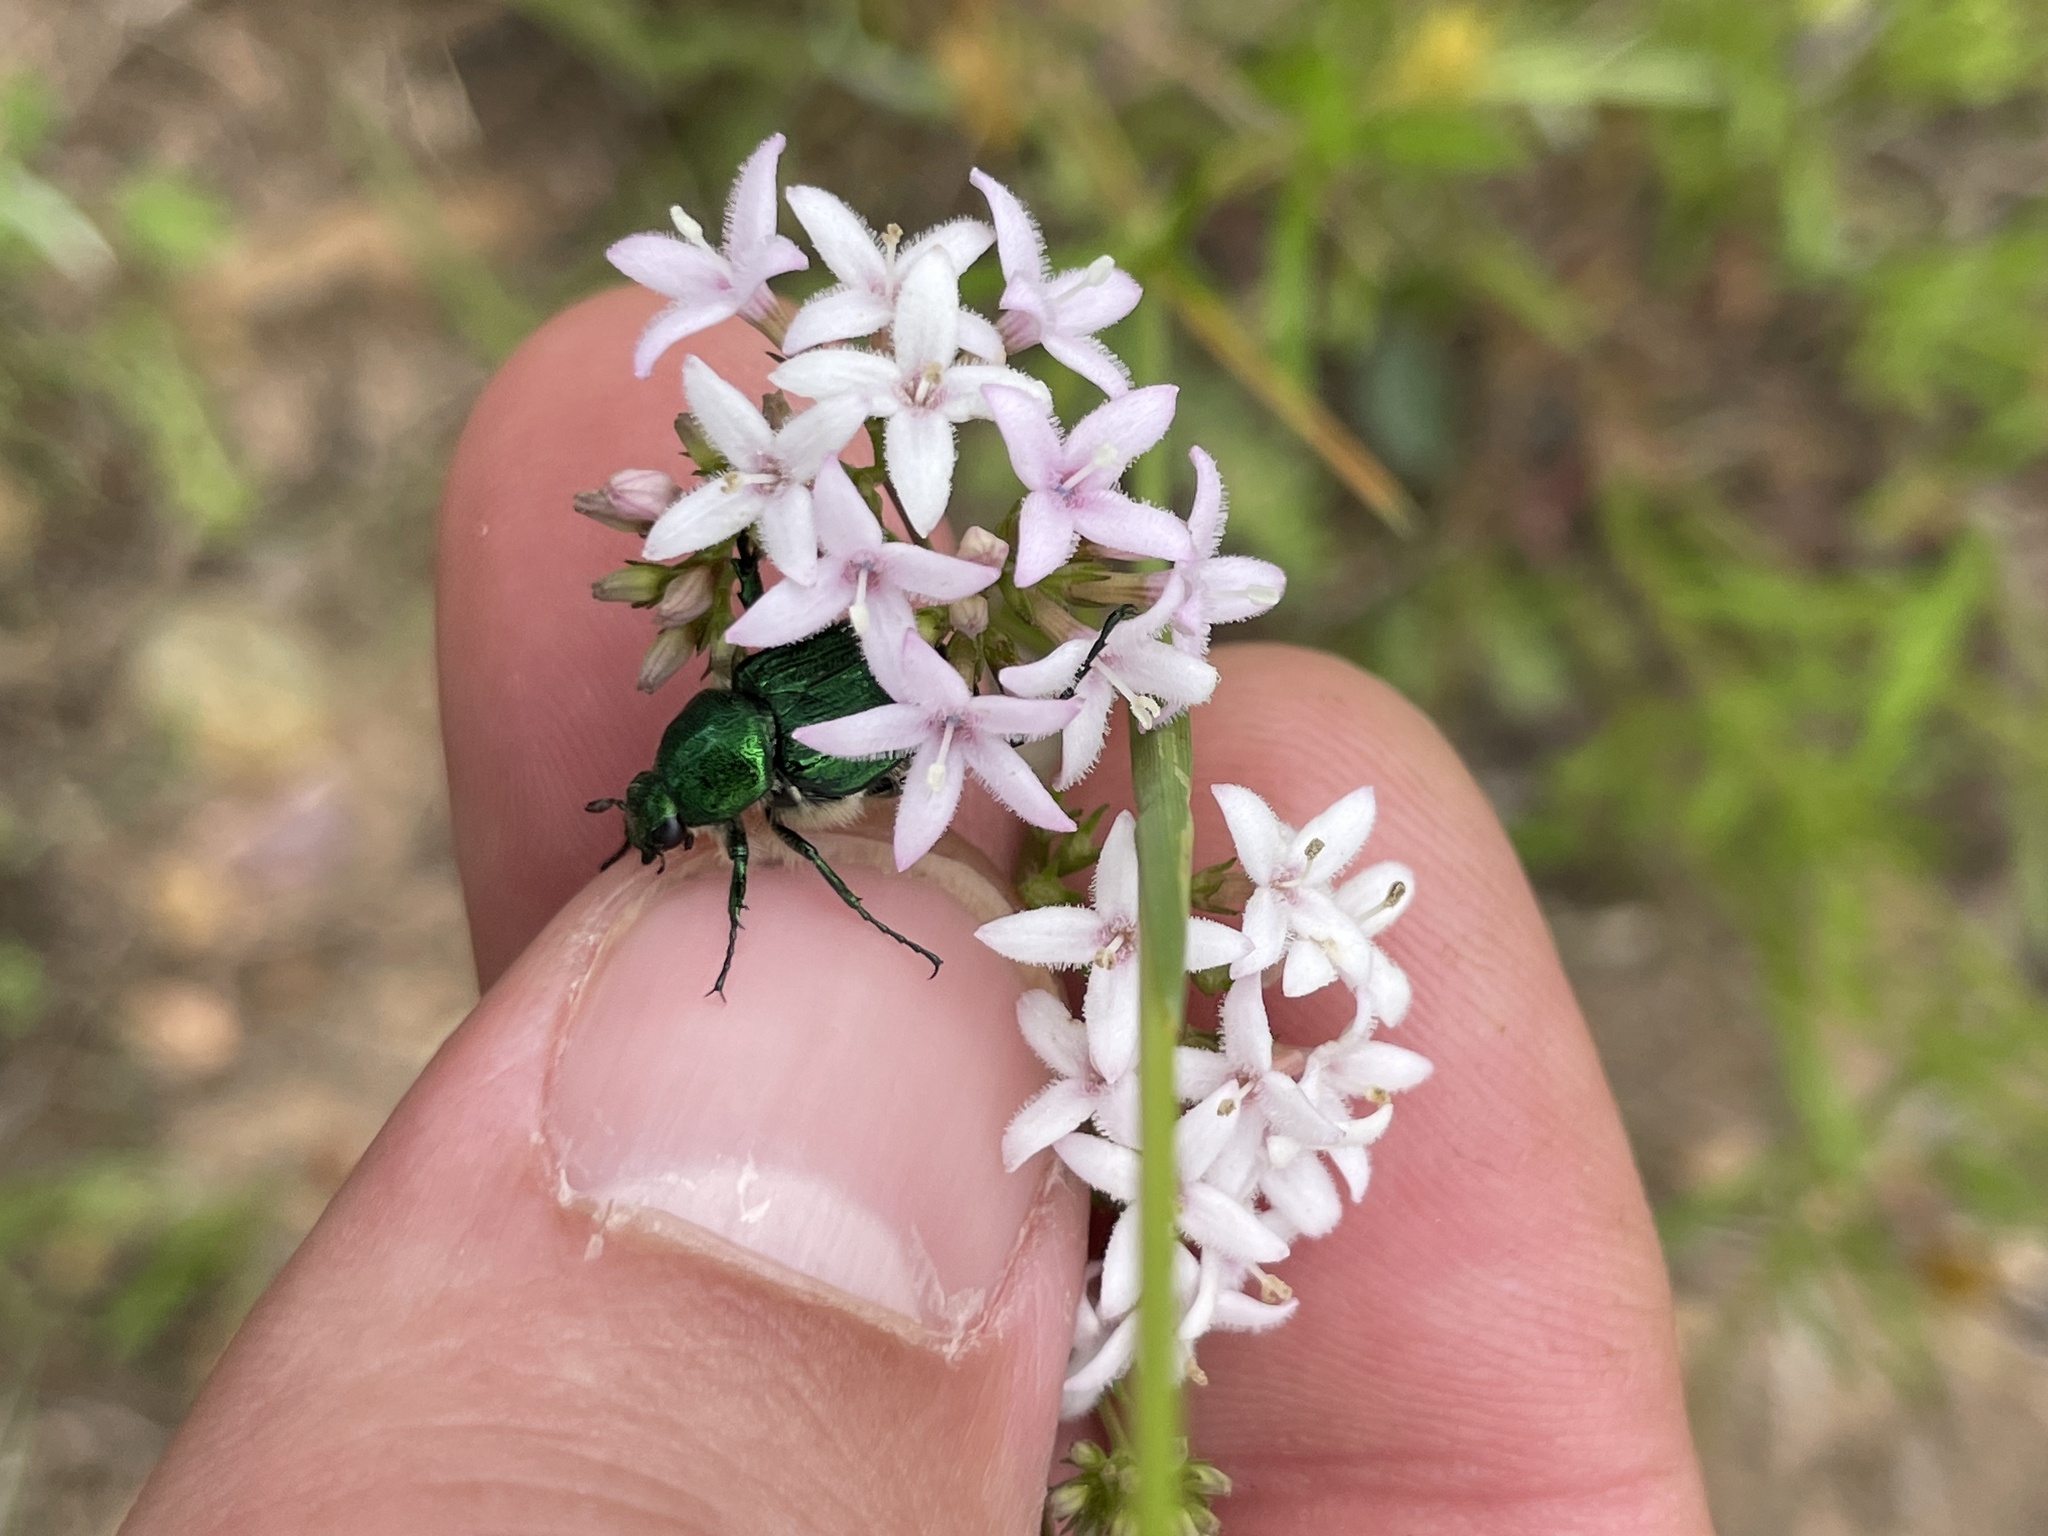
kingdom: Animalia
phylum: Arthropoda
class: Insecta
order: Coleoptera
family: Scarabaeidae
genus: Trichiotinus
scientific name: Trichiotinus lunulatus
